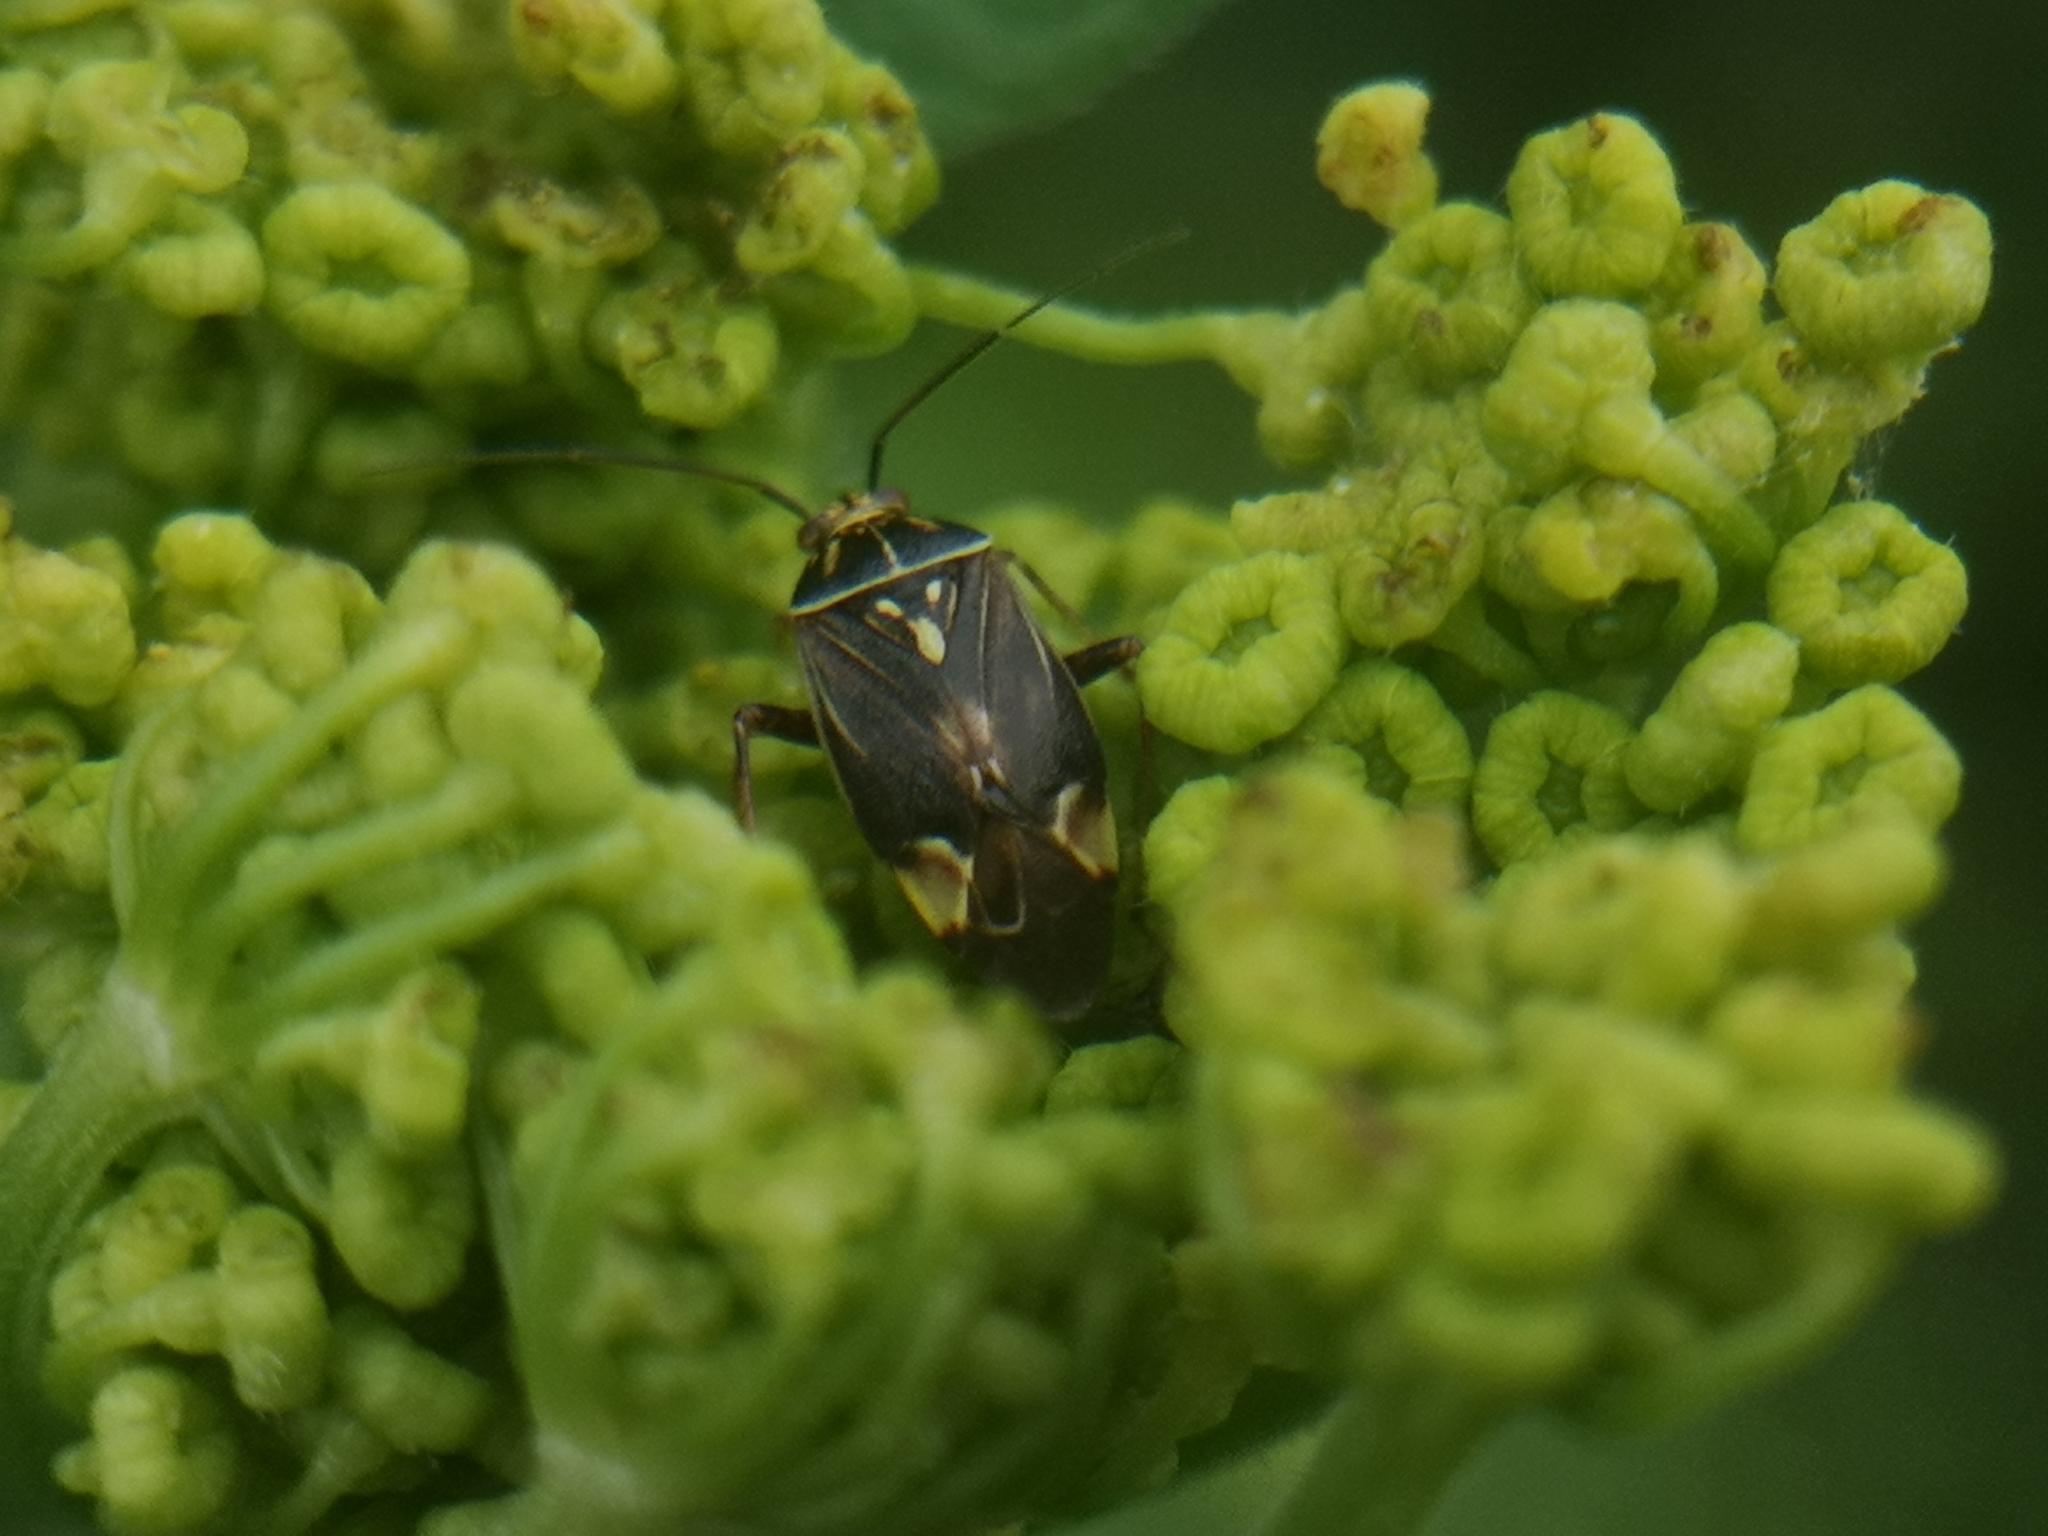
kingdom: Animalia
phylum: Arthropoda
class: Insecta
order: Hemiptera
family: Miridae
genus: Lygus
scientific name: Lygus lineolaris
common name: North american tarnished plant bug
